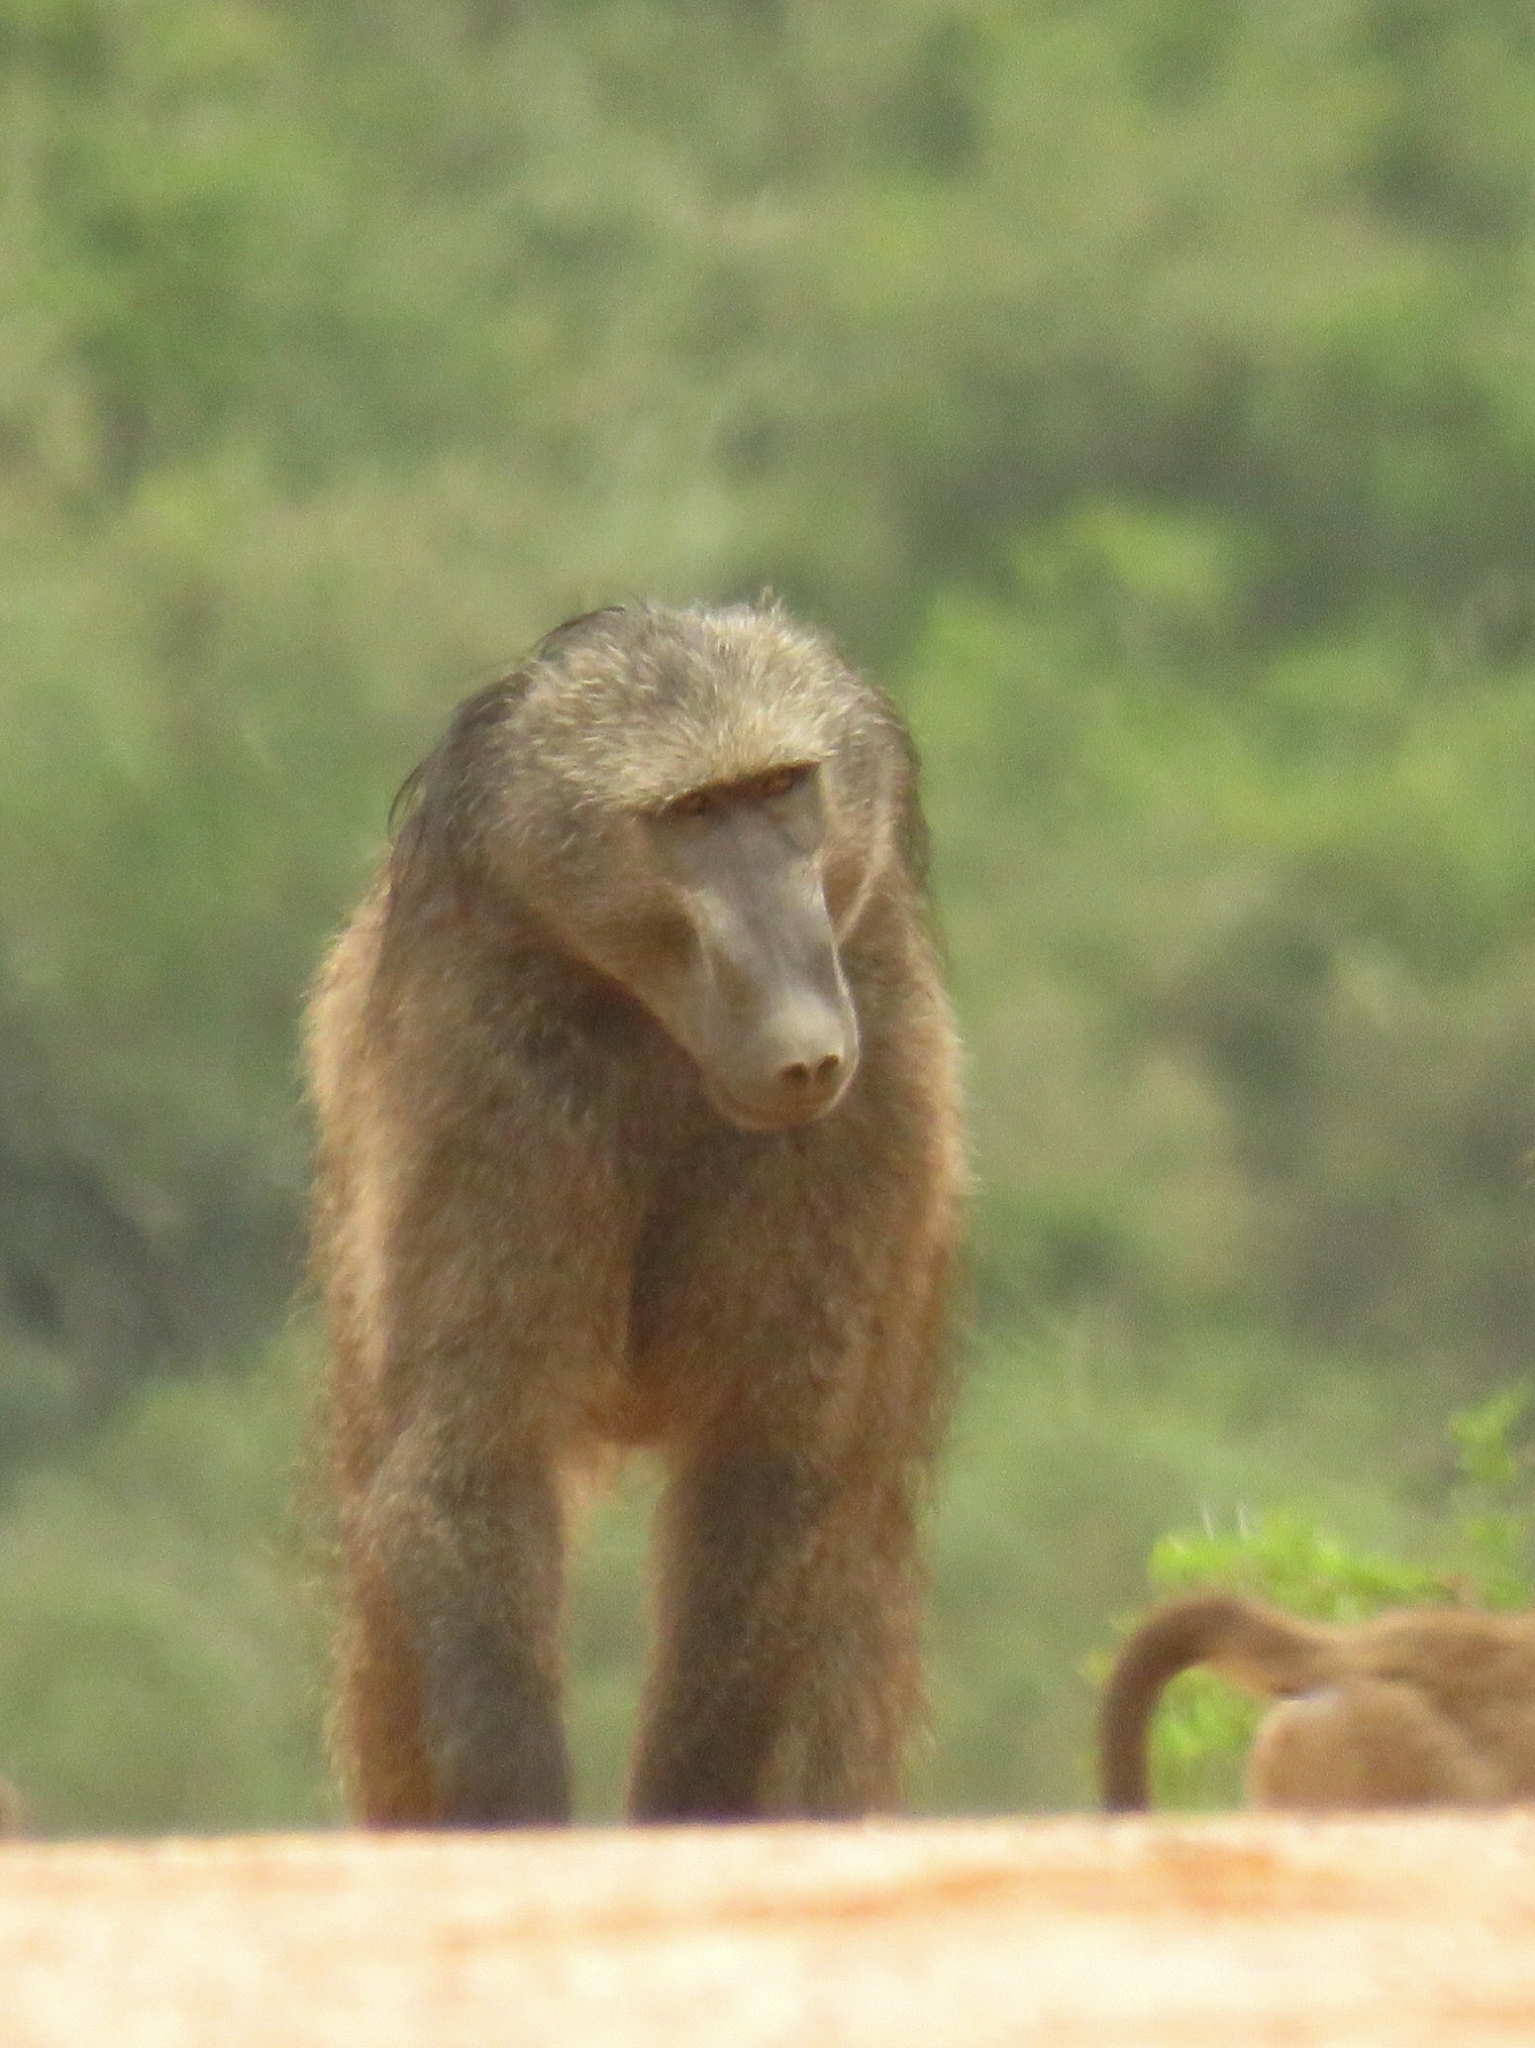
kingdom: Animalia
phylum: Chordata
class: Mammalia
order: Primates
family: Cercopithecidae
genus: Papio
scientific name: Papio ursinus
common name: Chacma baboon
